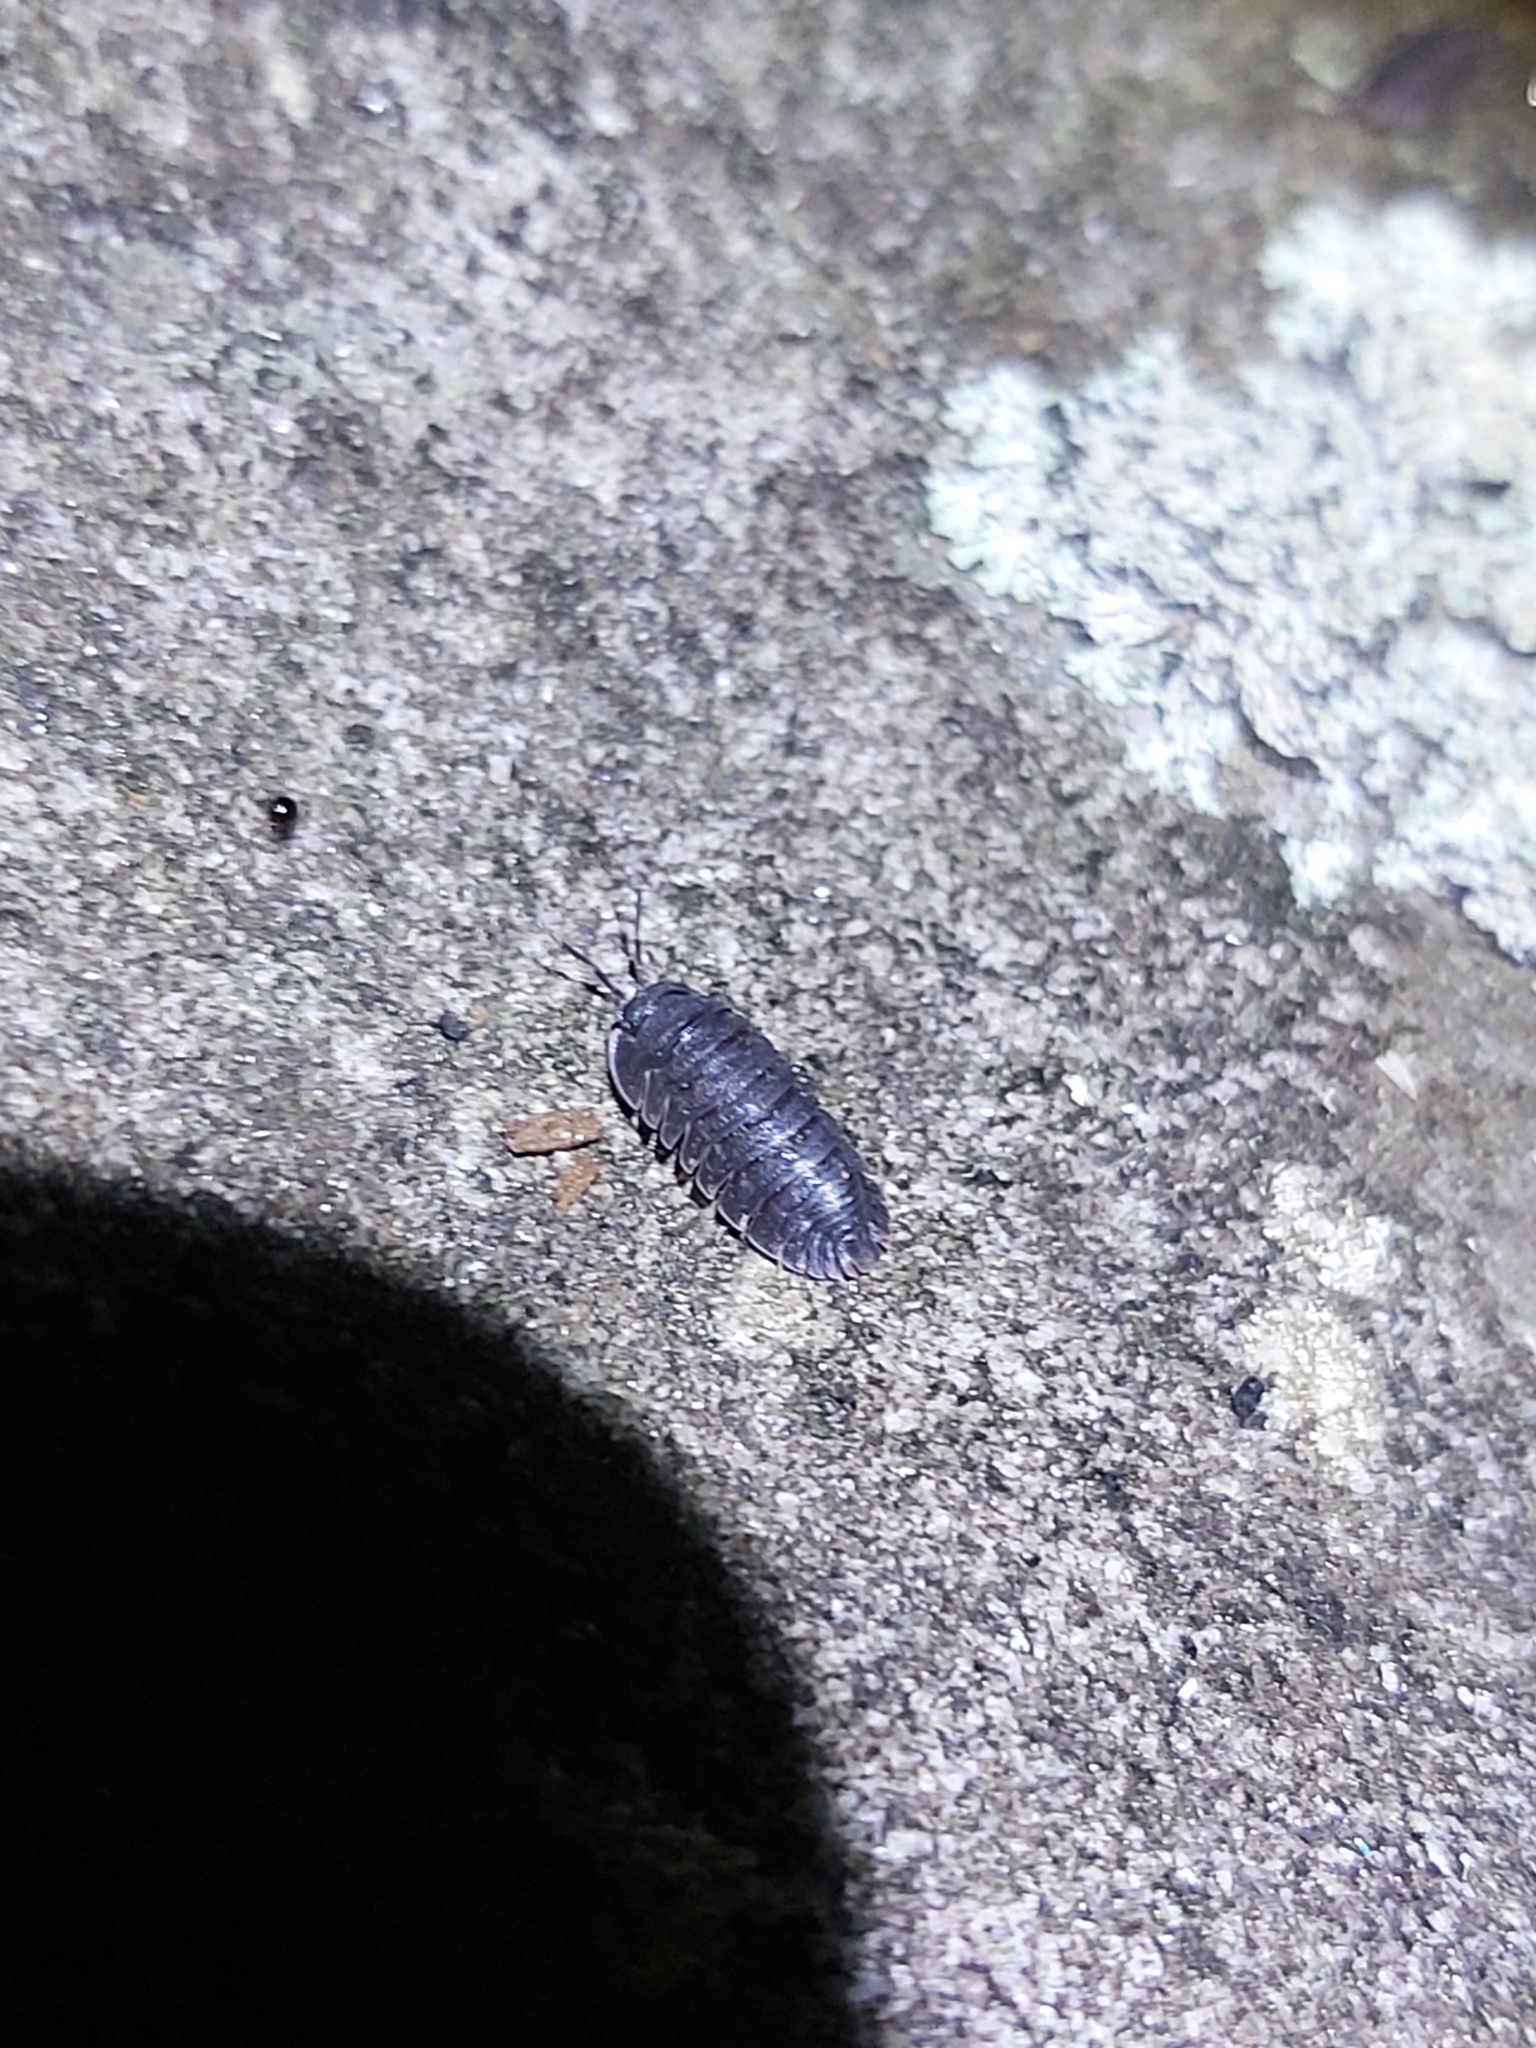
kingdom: Animalia
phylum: Arthropoda
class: Malacostraca
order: Isopoda
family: Armadillidae
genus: Merulana
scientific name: Merulana helmsiana
